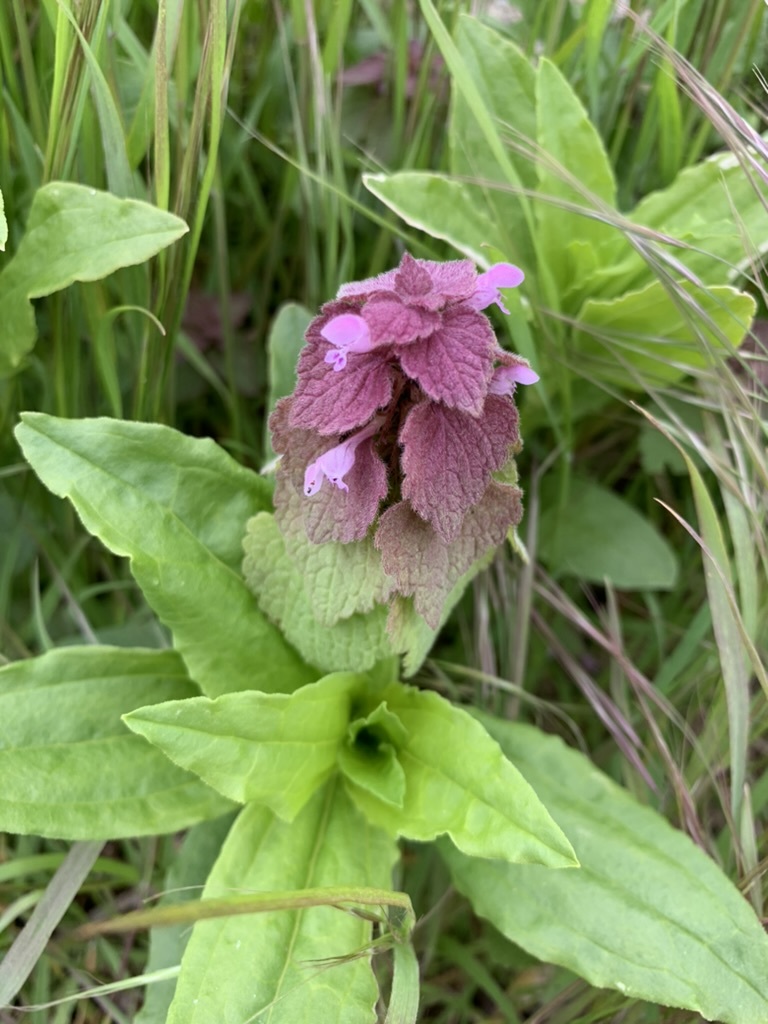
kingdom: Plantae
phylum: Tracheophyta
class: Magnoliopsida
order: Lamiales
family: Lamiaceae
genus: Lamium
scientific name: Lamium purpureum
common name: Red dead-nettle
